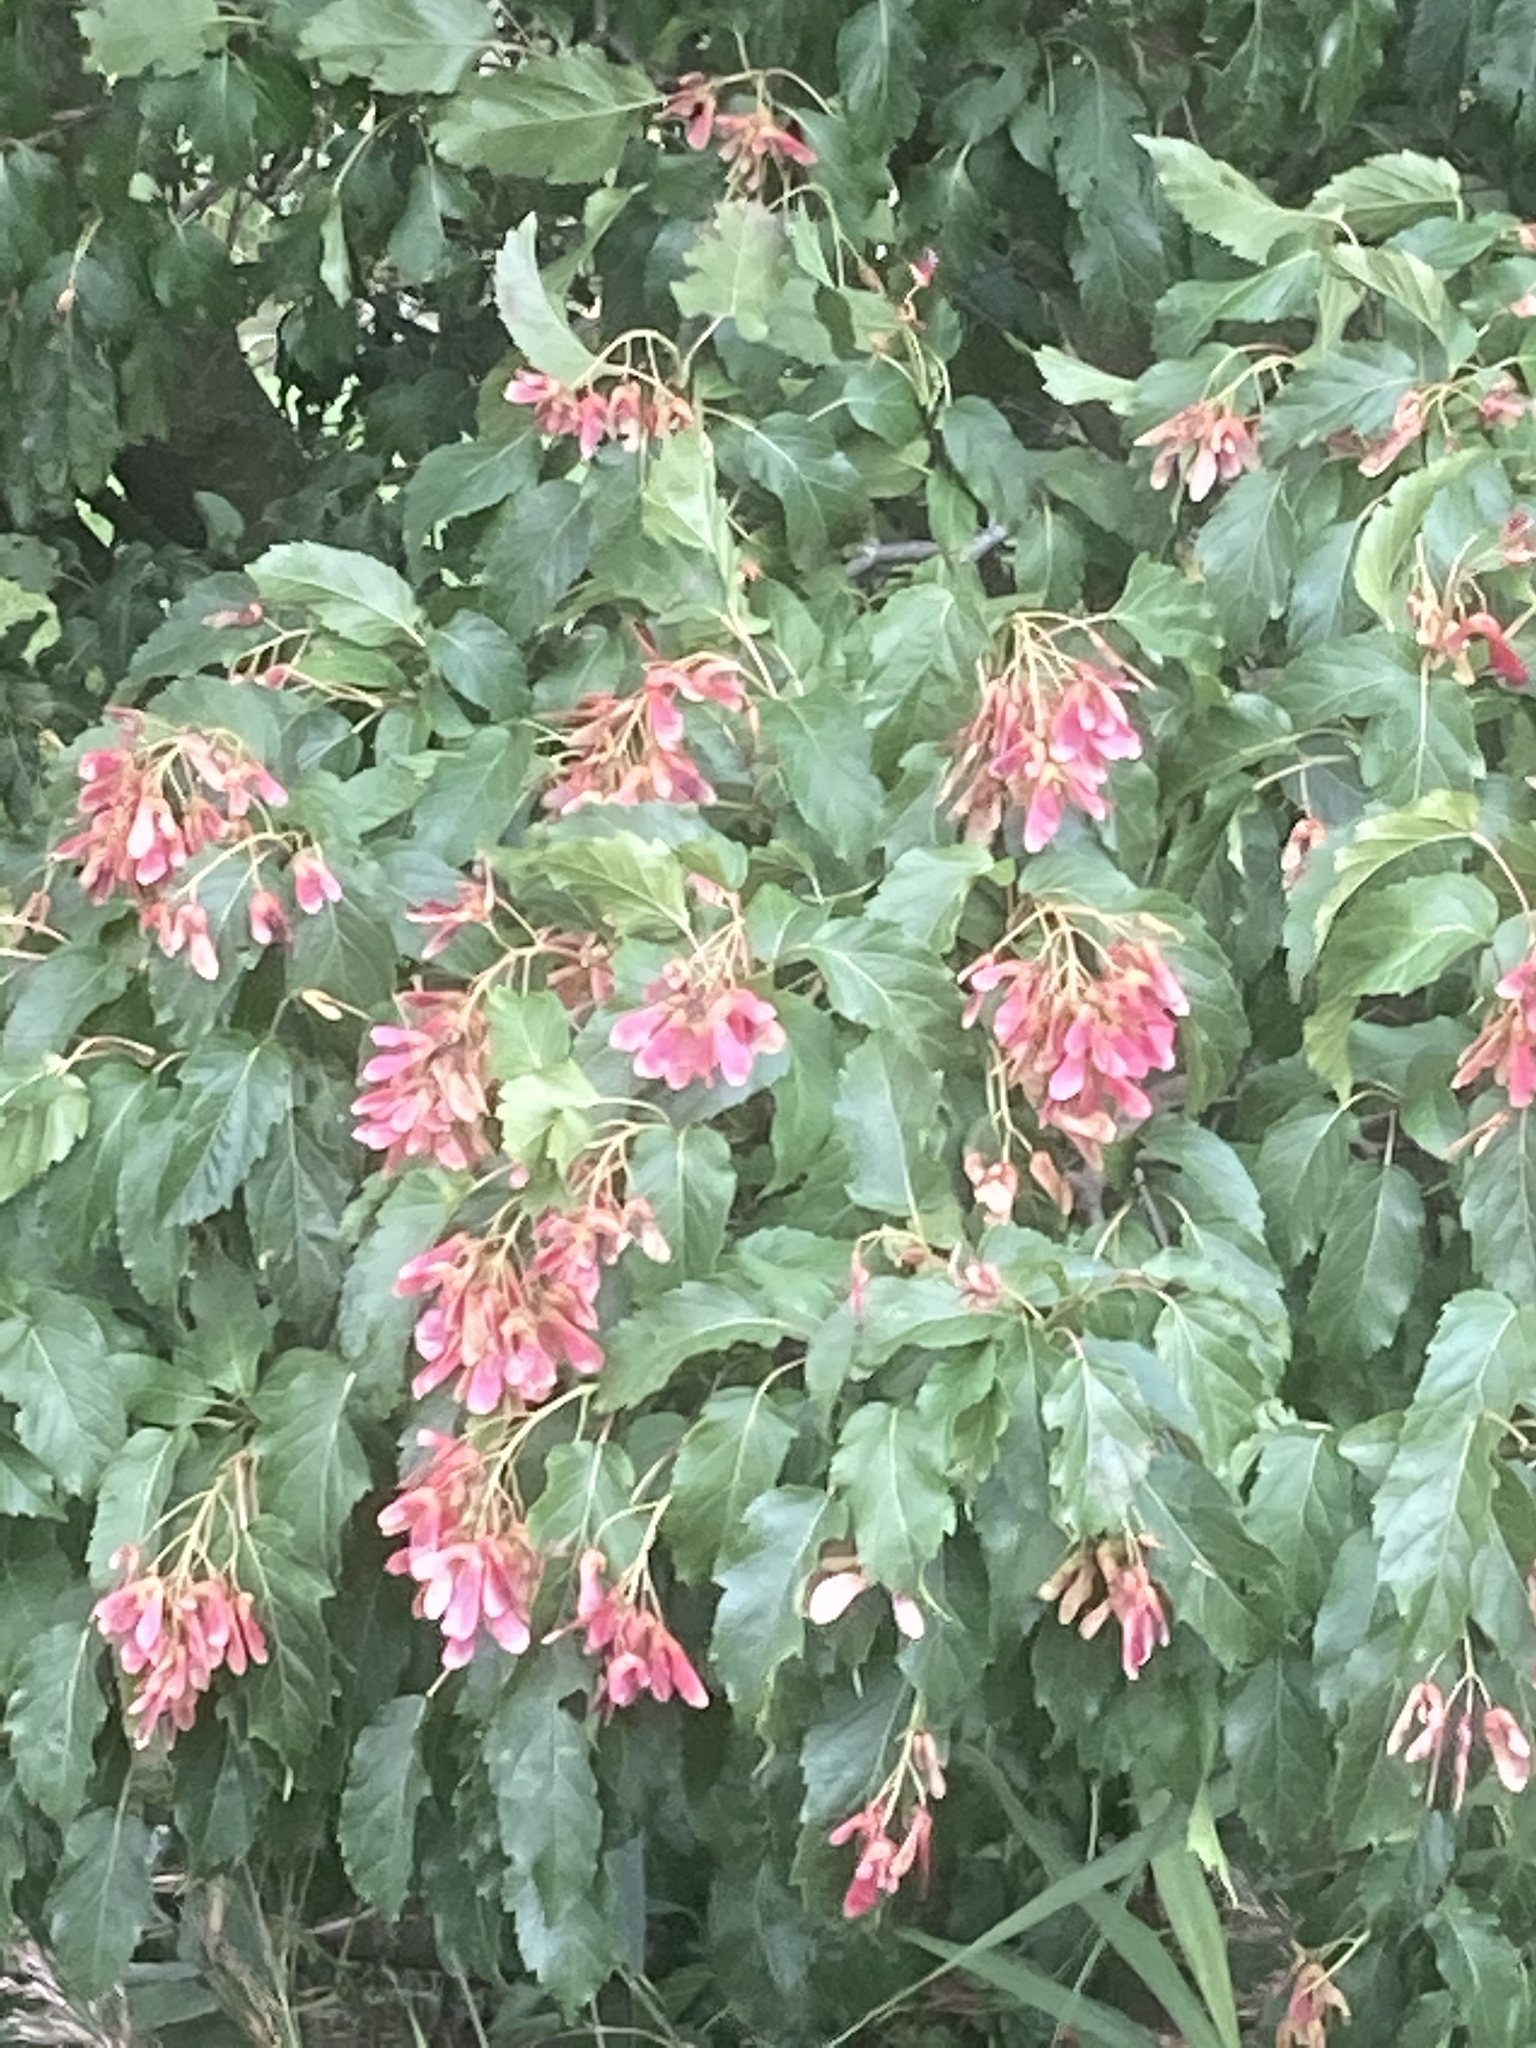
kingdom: Plantae
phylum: Tracheophyta
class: Magnoliopsida
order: Sapindales
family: Sapindaceae
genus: Acer
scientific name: Acer tataricum
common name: Tartar maple
